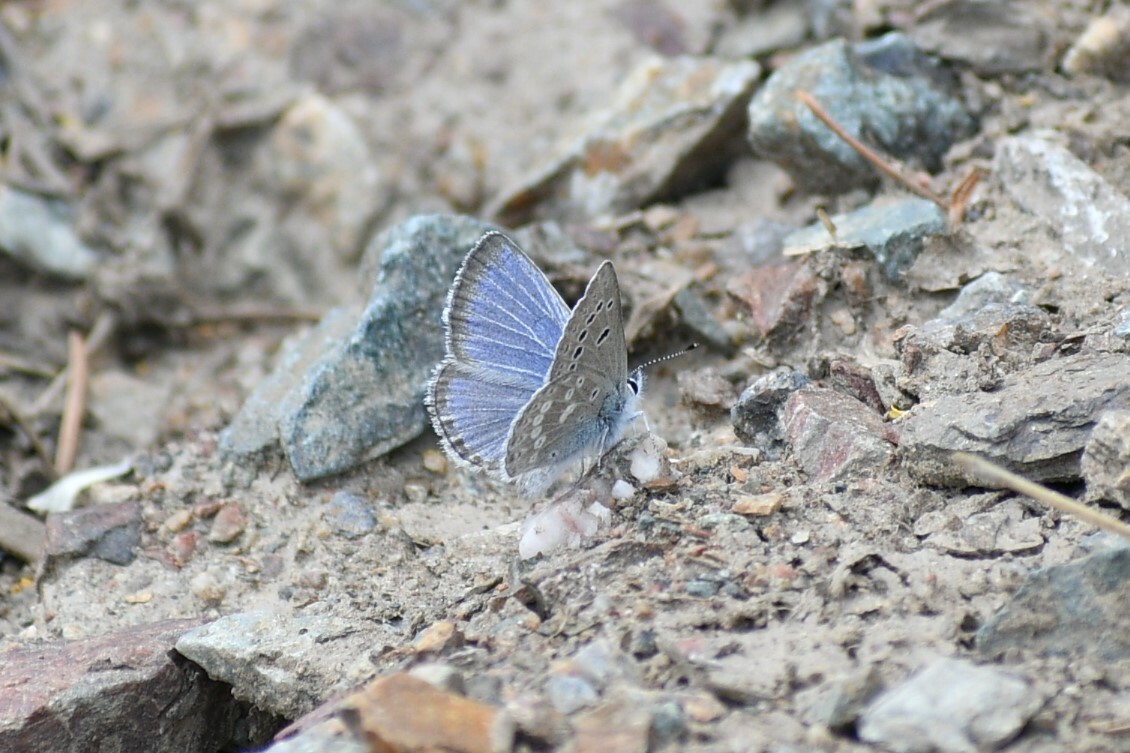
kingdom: Animalia
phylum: Arthropoda
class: Insecta
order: Lepidoptera
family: Lycaenidae
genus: Icaricia
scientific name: Icaricia icarioides
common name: Boisduval's blue
